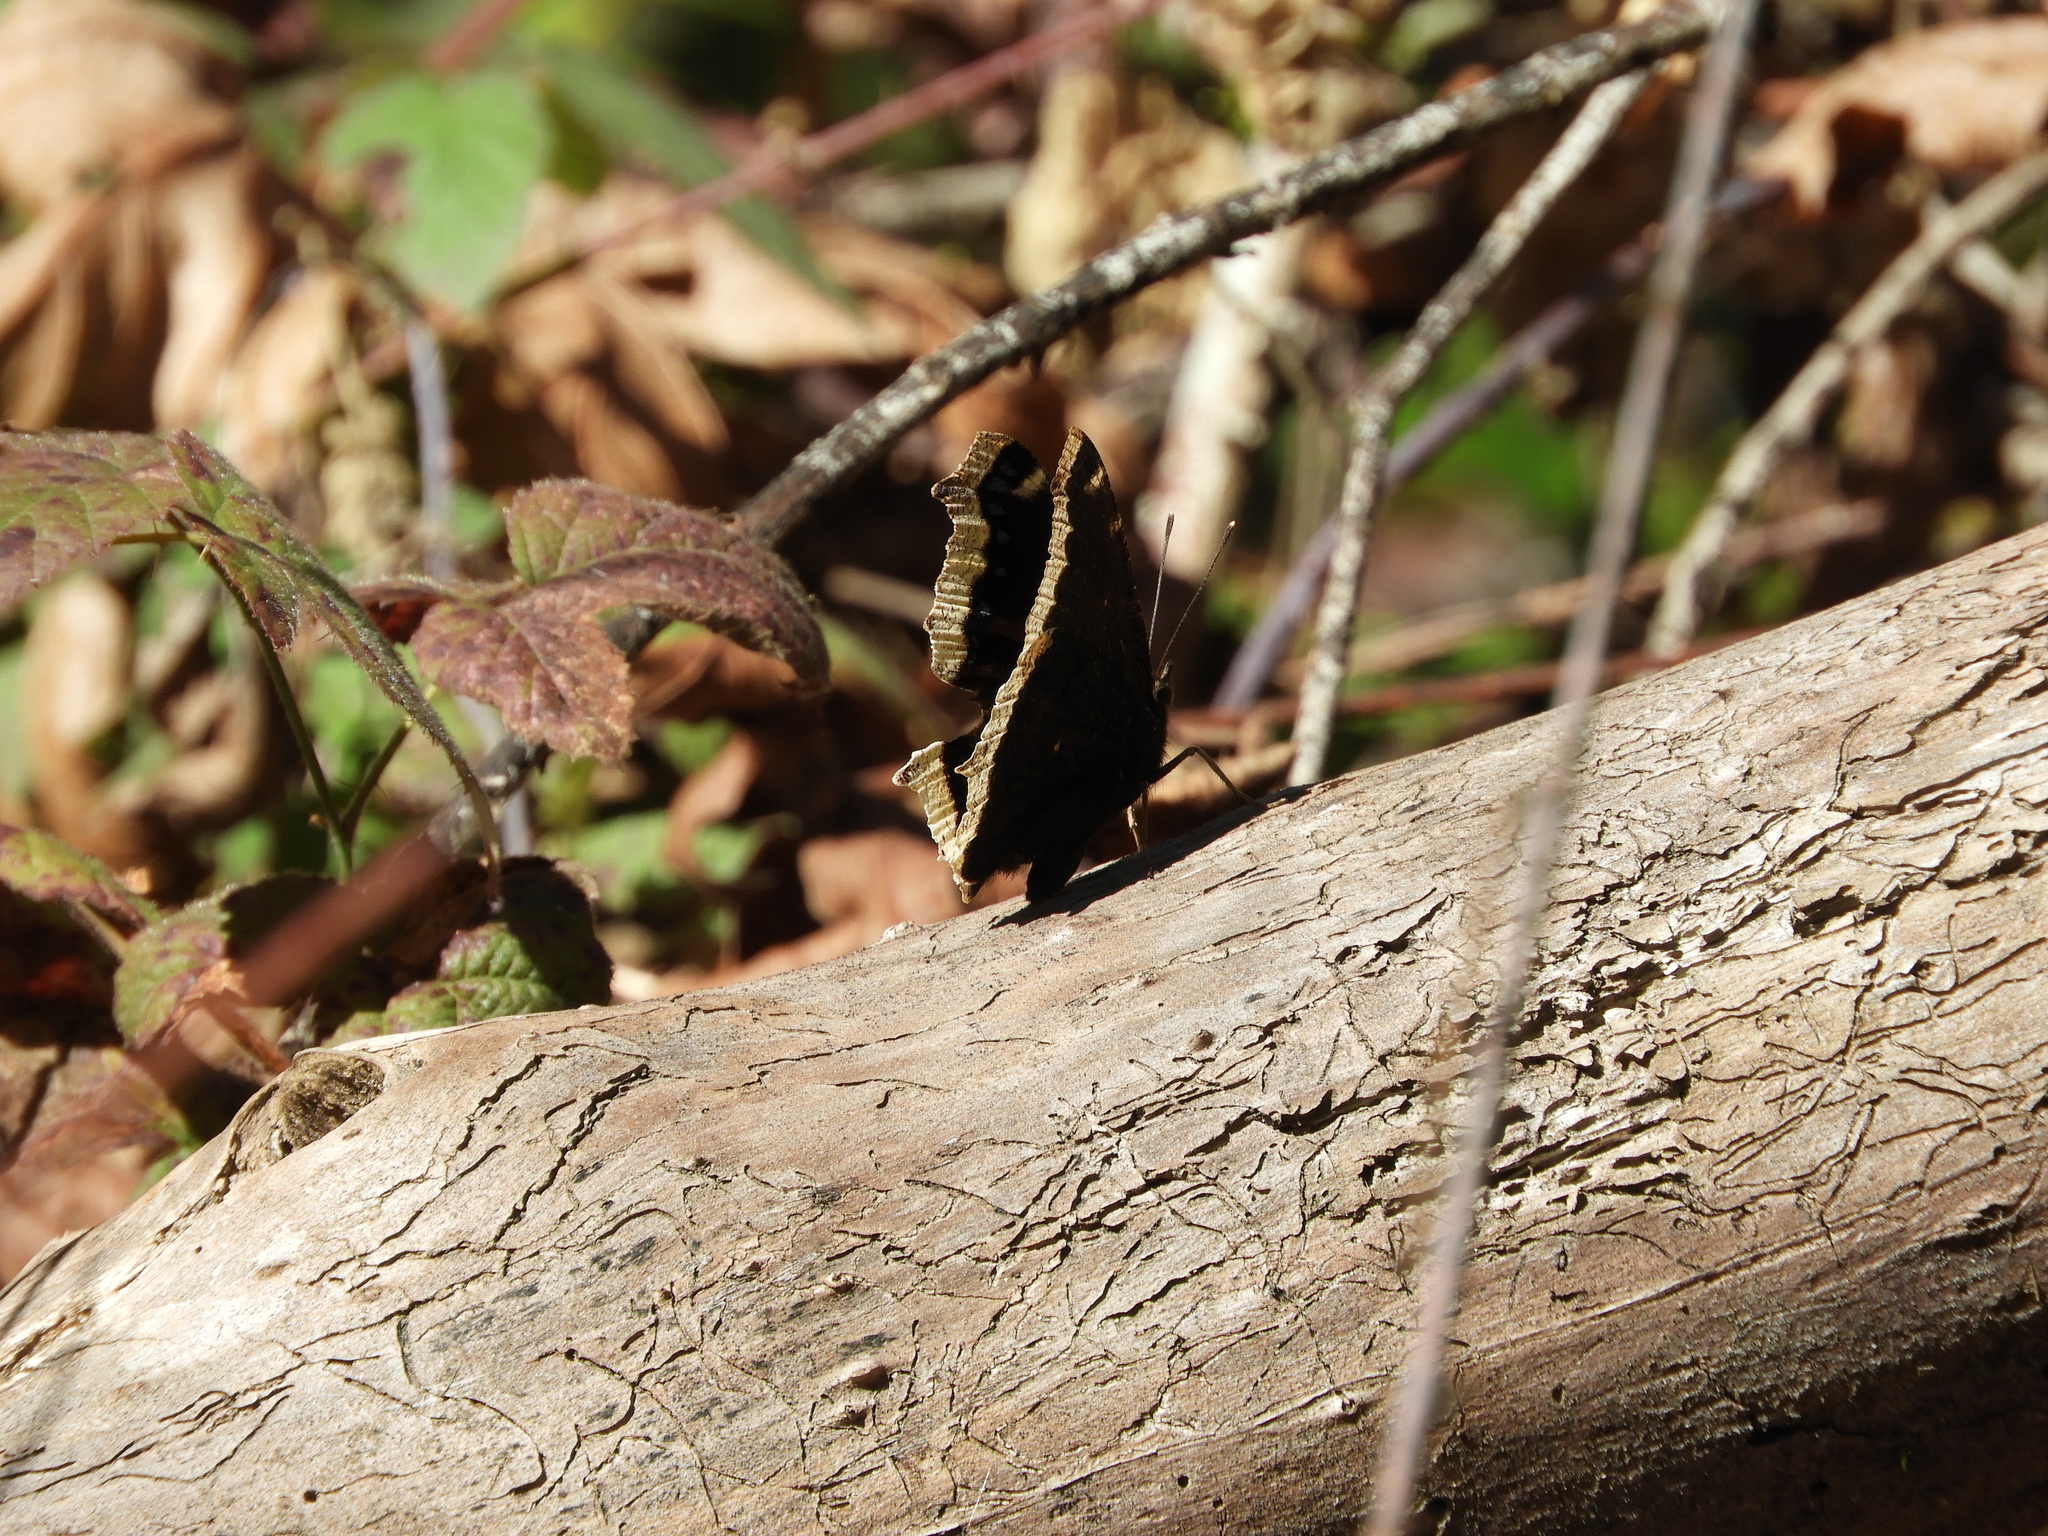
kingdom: Animalia
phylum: Arthropoda
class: Insecta
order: Lepidoptera
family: Nymphalidae
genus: Nymphalis
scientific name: Nymphalis antiopa
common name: Camberwell beauty
